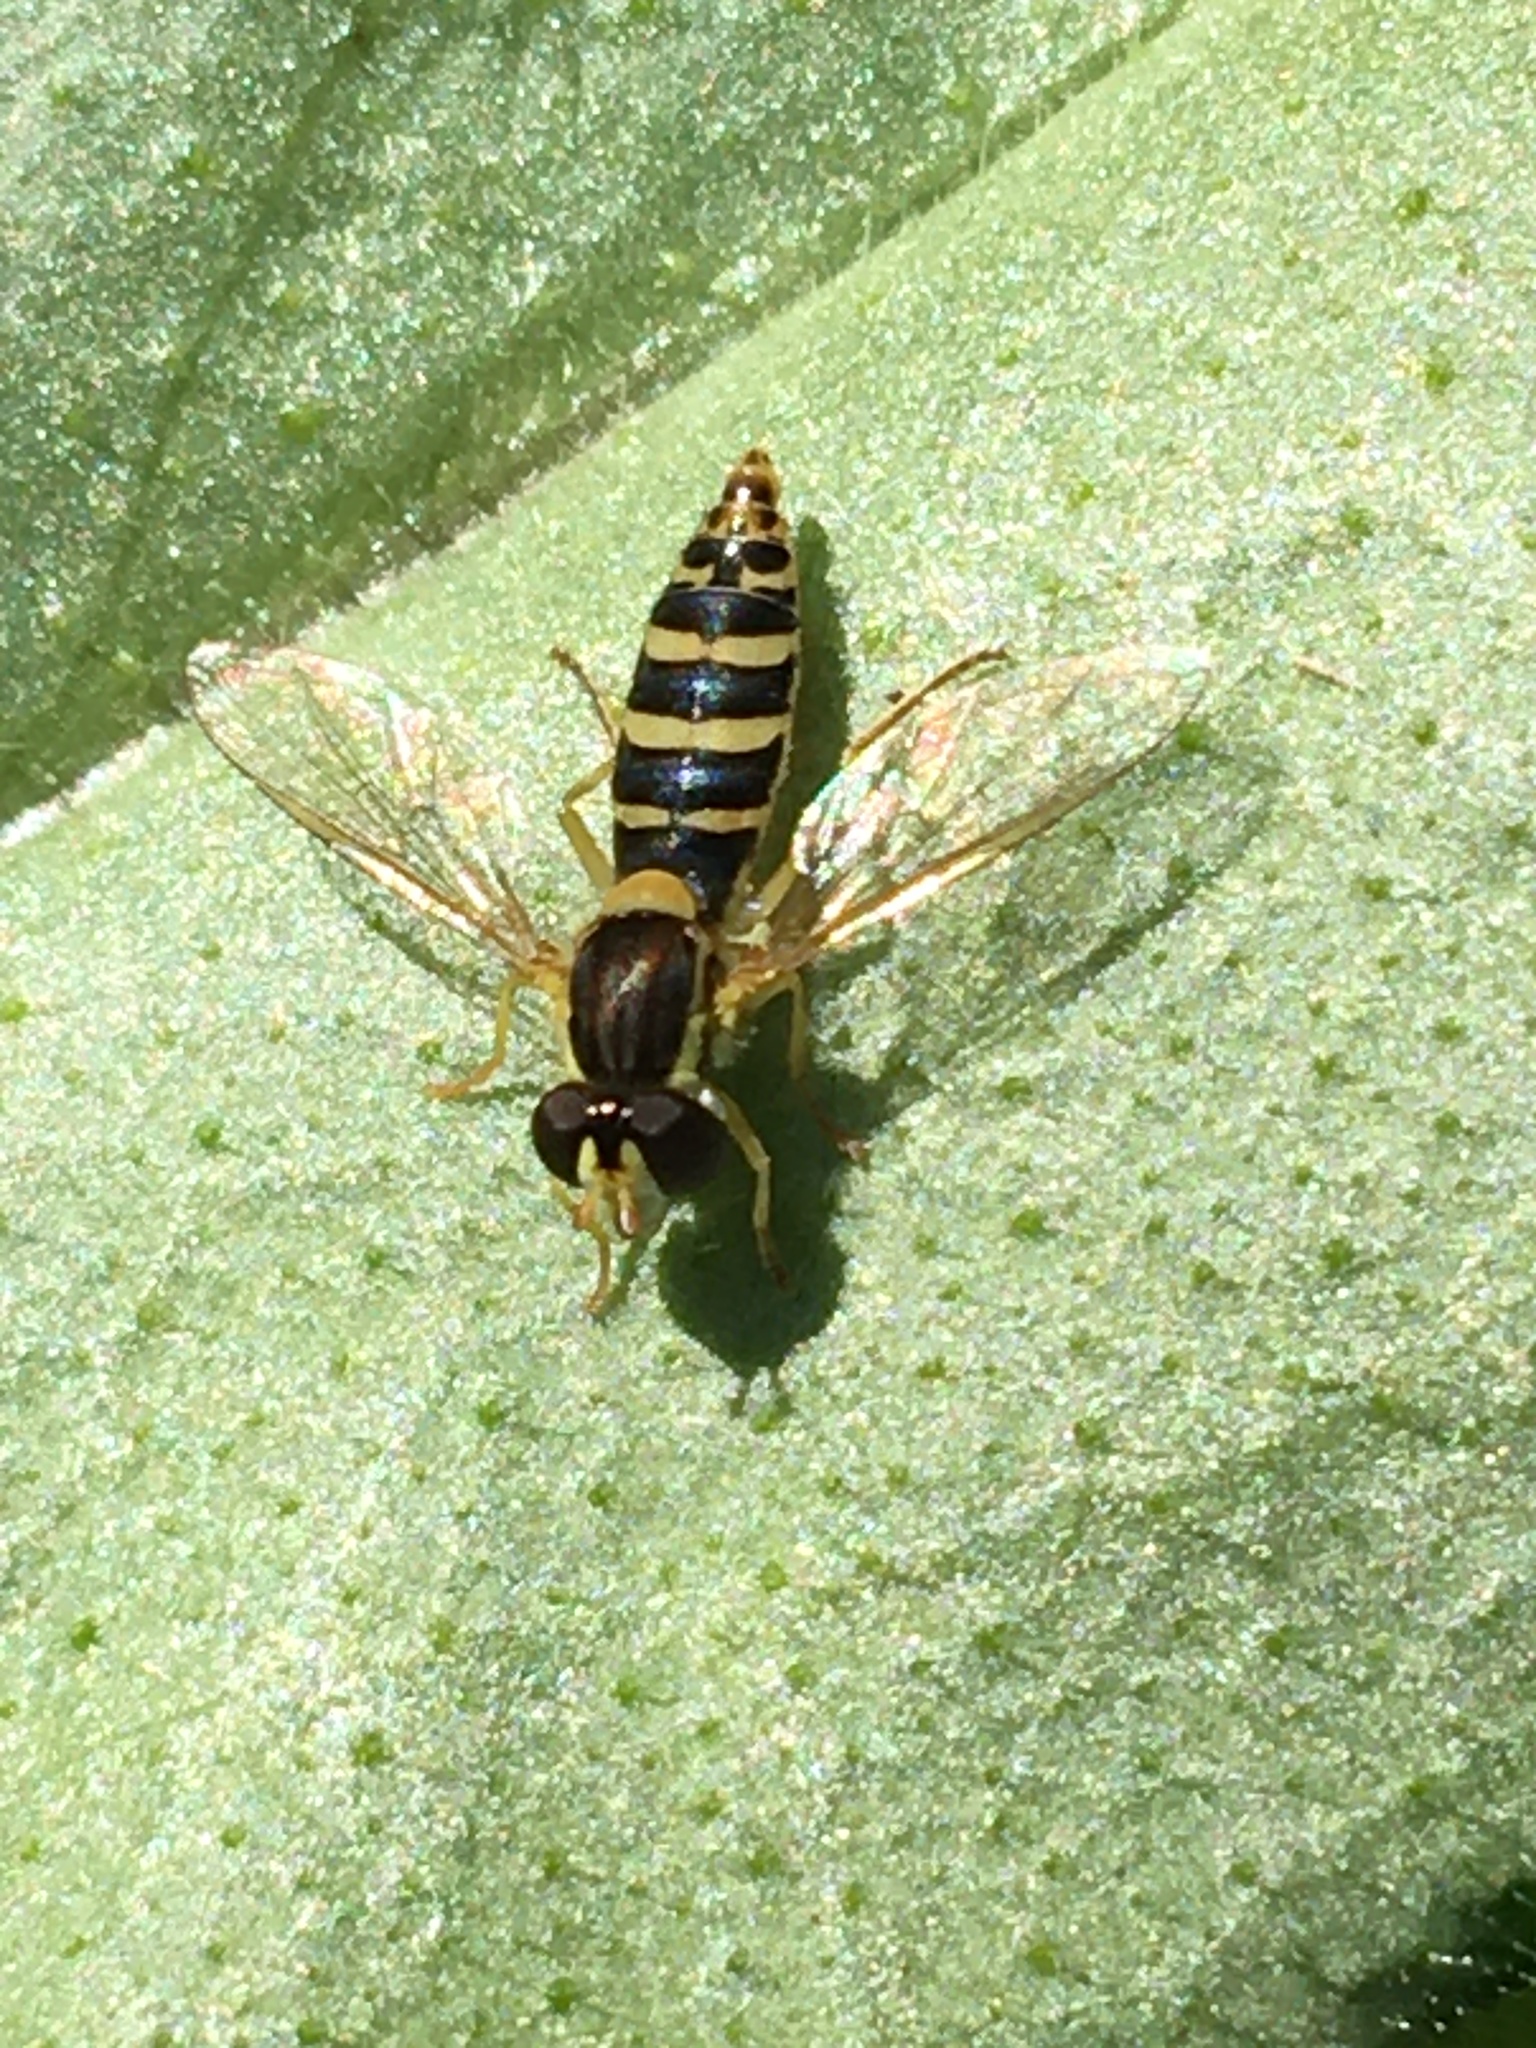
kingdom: Animalia
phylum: Arthropoda
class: Insecta
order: Diptera
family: Syrphidae
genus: Sphaerophoria
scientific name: Sphaerophoria
